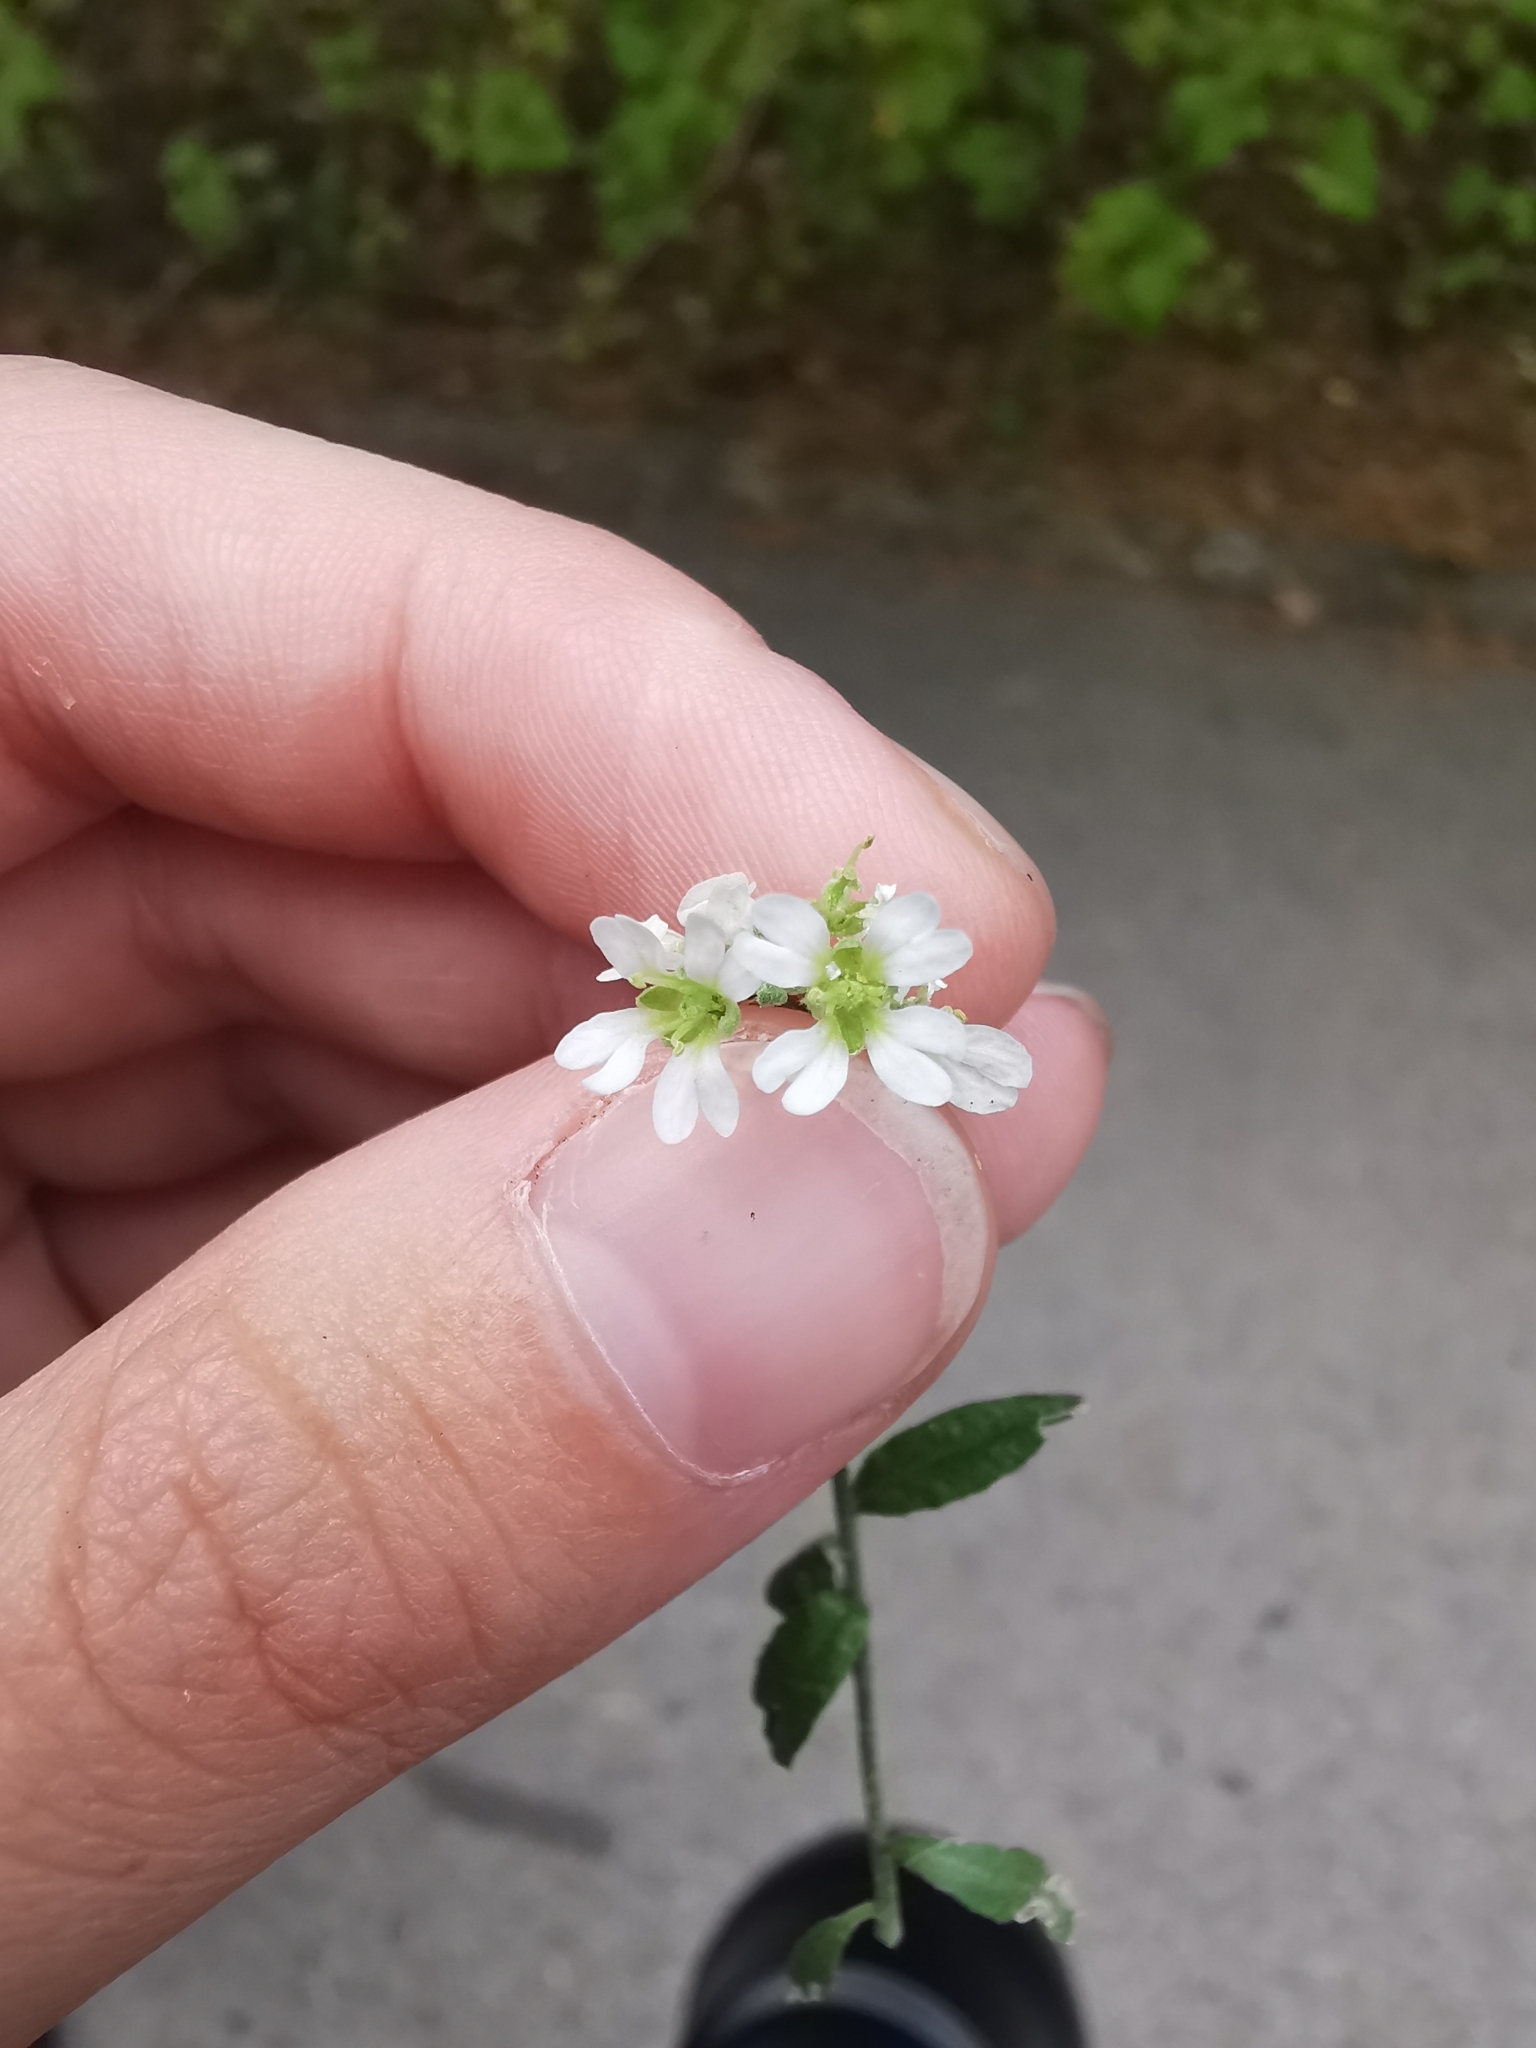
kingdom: Plantae
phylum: Tracheophyta
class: Magnoliopsida
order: Brassicales
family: Brassicaceae
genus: Berteroa
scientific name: Berteroa incana
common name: Hoary alison
